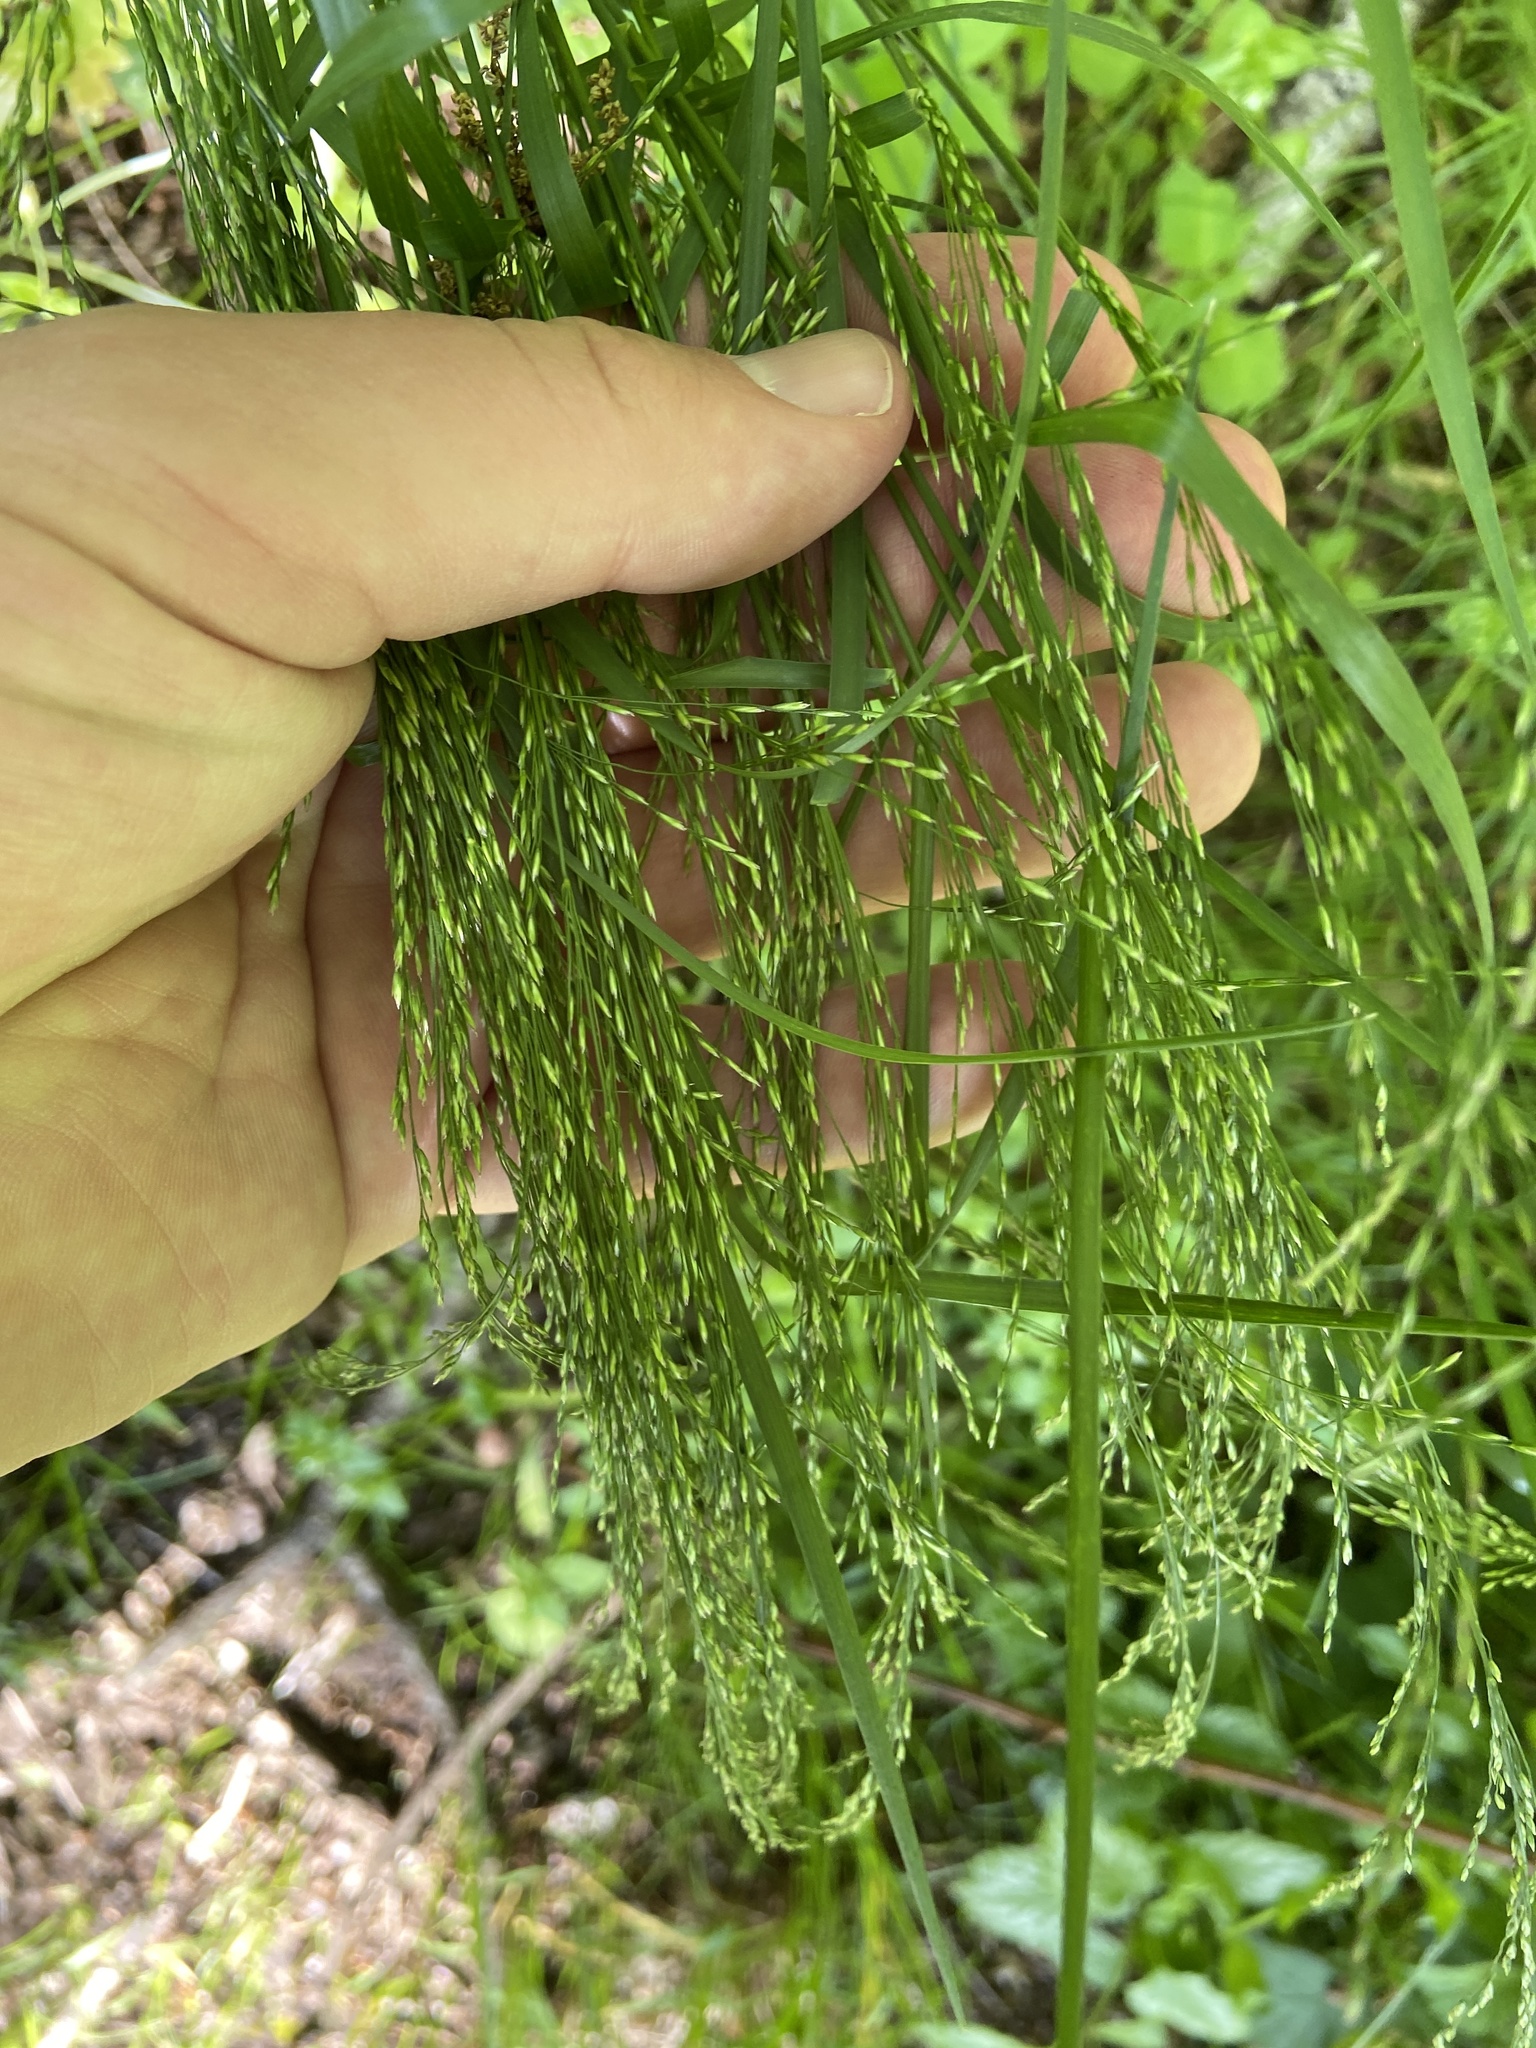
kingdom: Plantae
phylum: Tracheophyta
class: Liliopsida
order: Poales
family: Poaceae
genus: Poa
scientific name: Poa nemoralis
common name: Wood bluegrass
